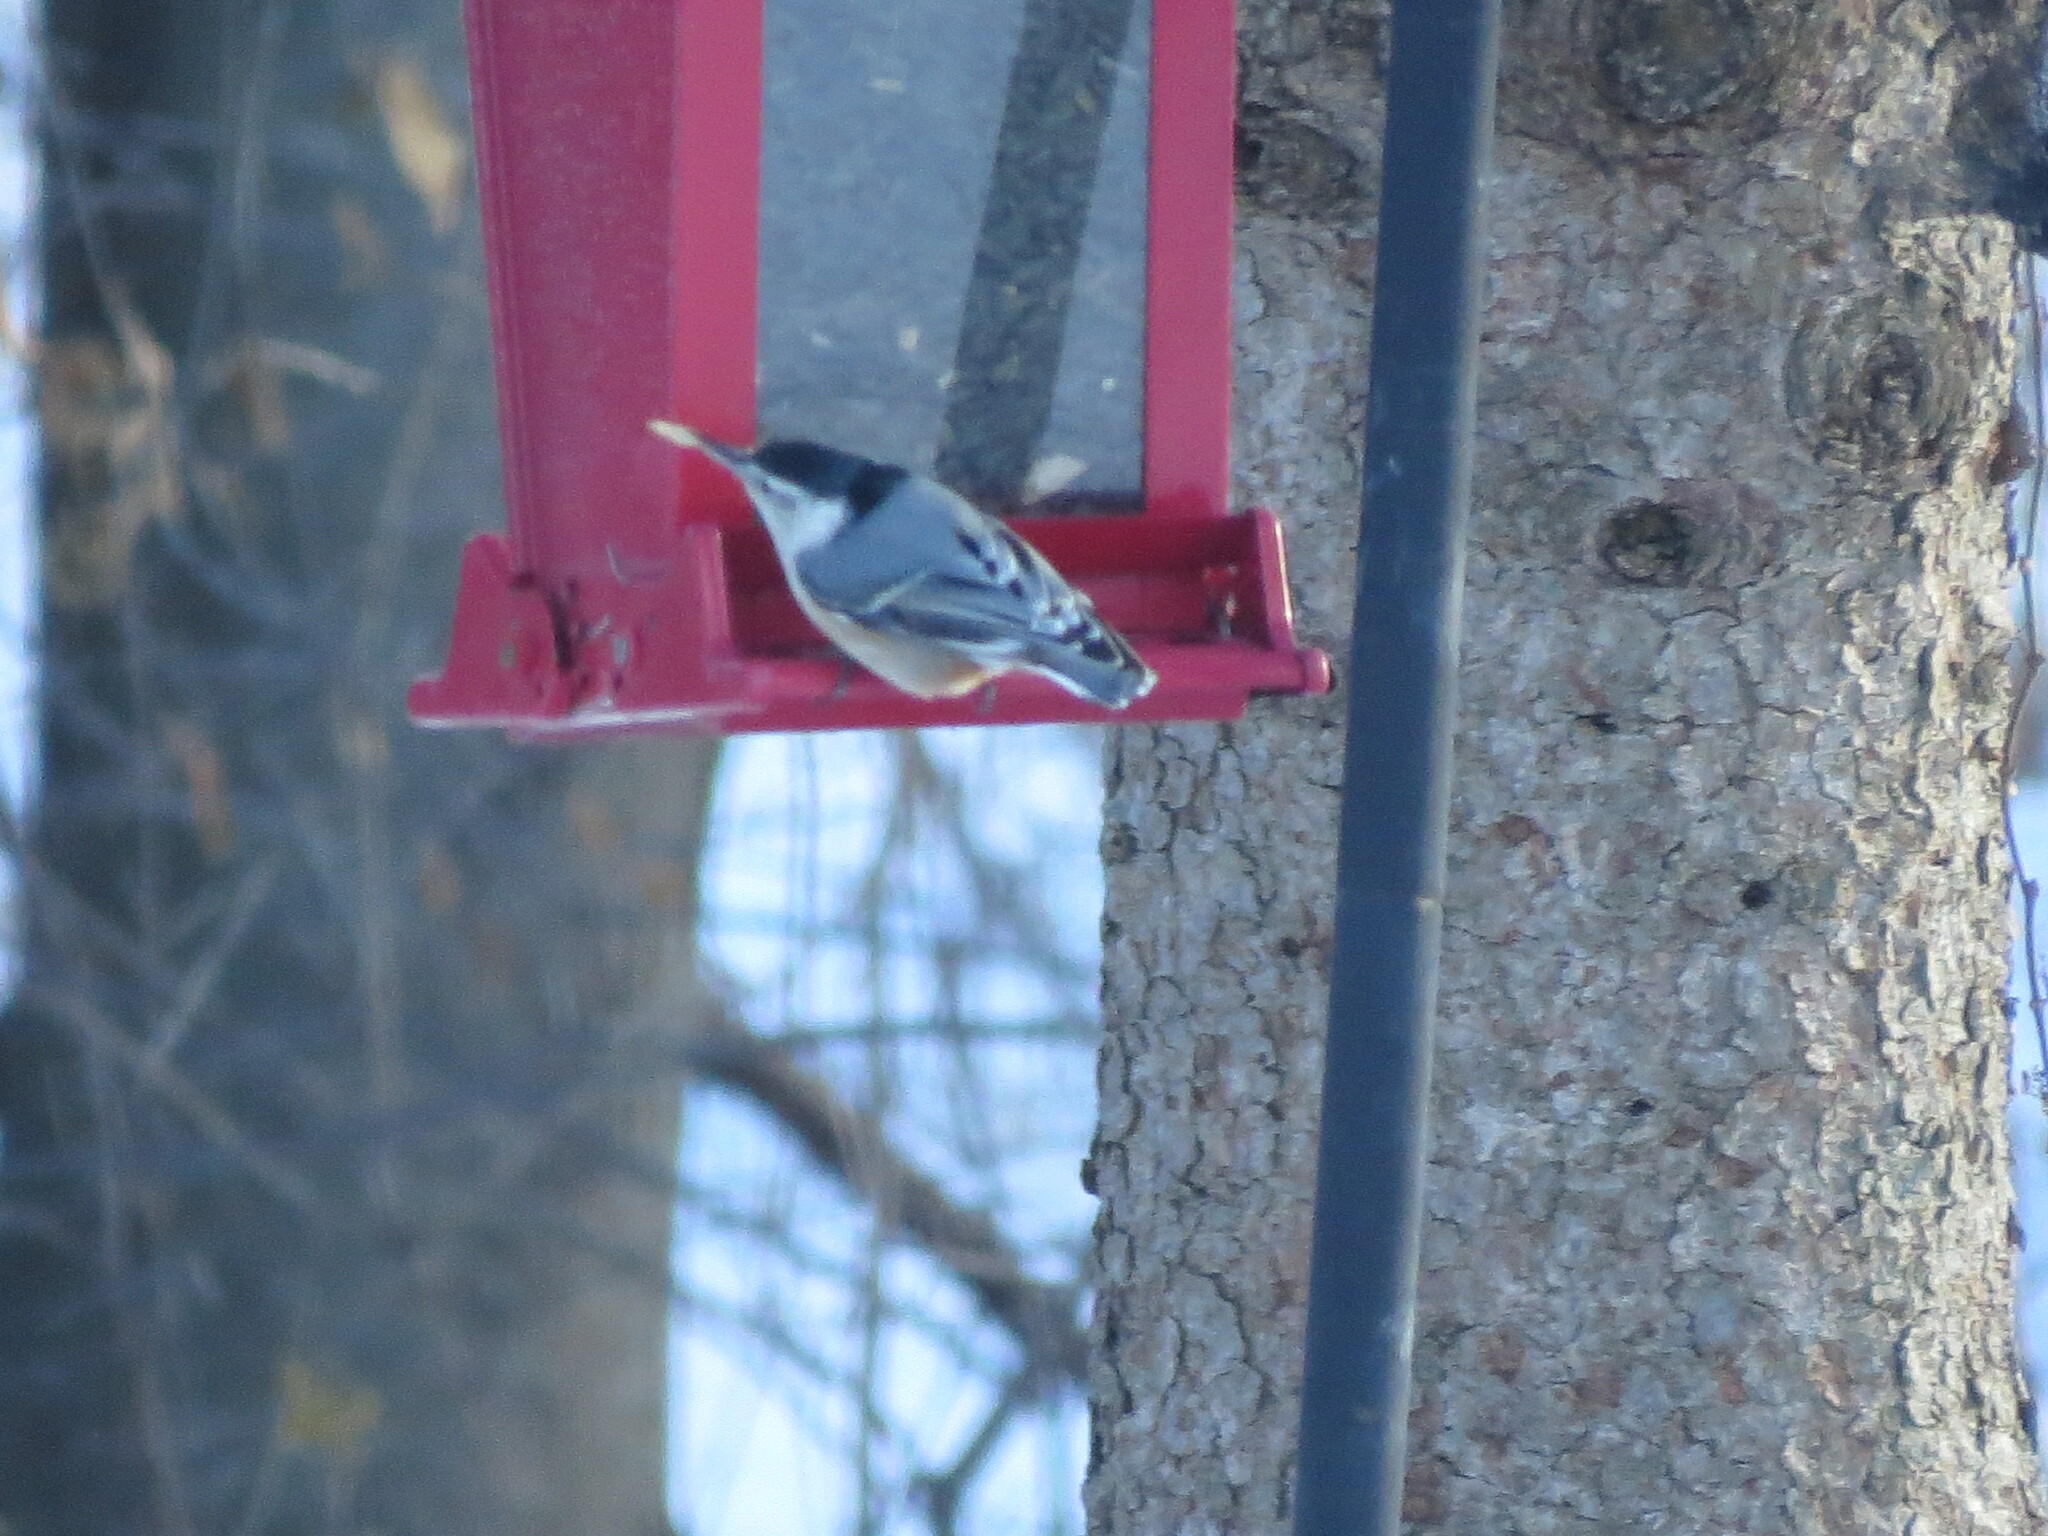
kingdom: Animalia
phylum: Chordata
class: Aves
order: Passeriformes
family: Sittidae
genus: Sitta
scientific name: Sitta carolinensis
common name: White-breasted nuthatch
